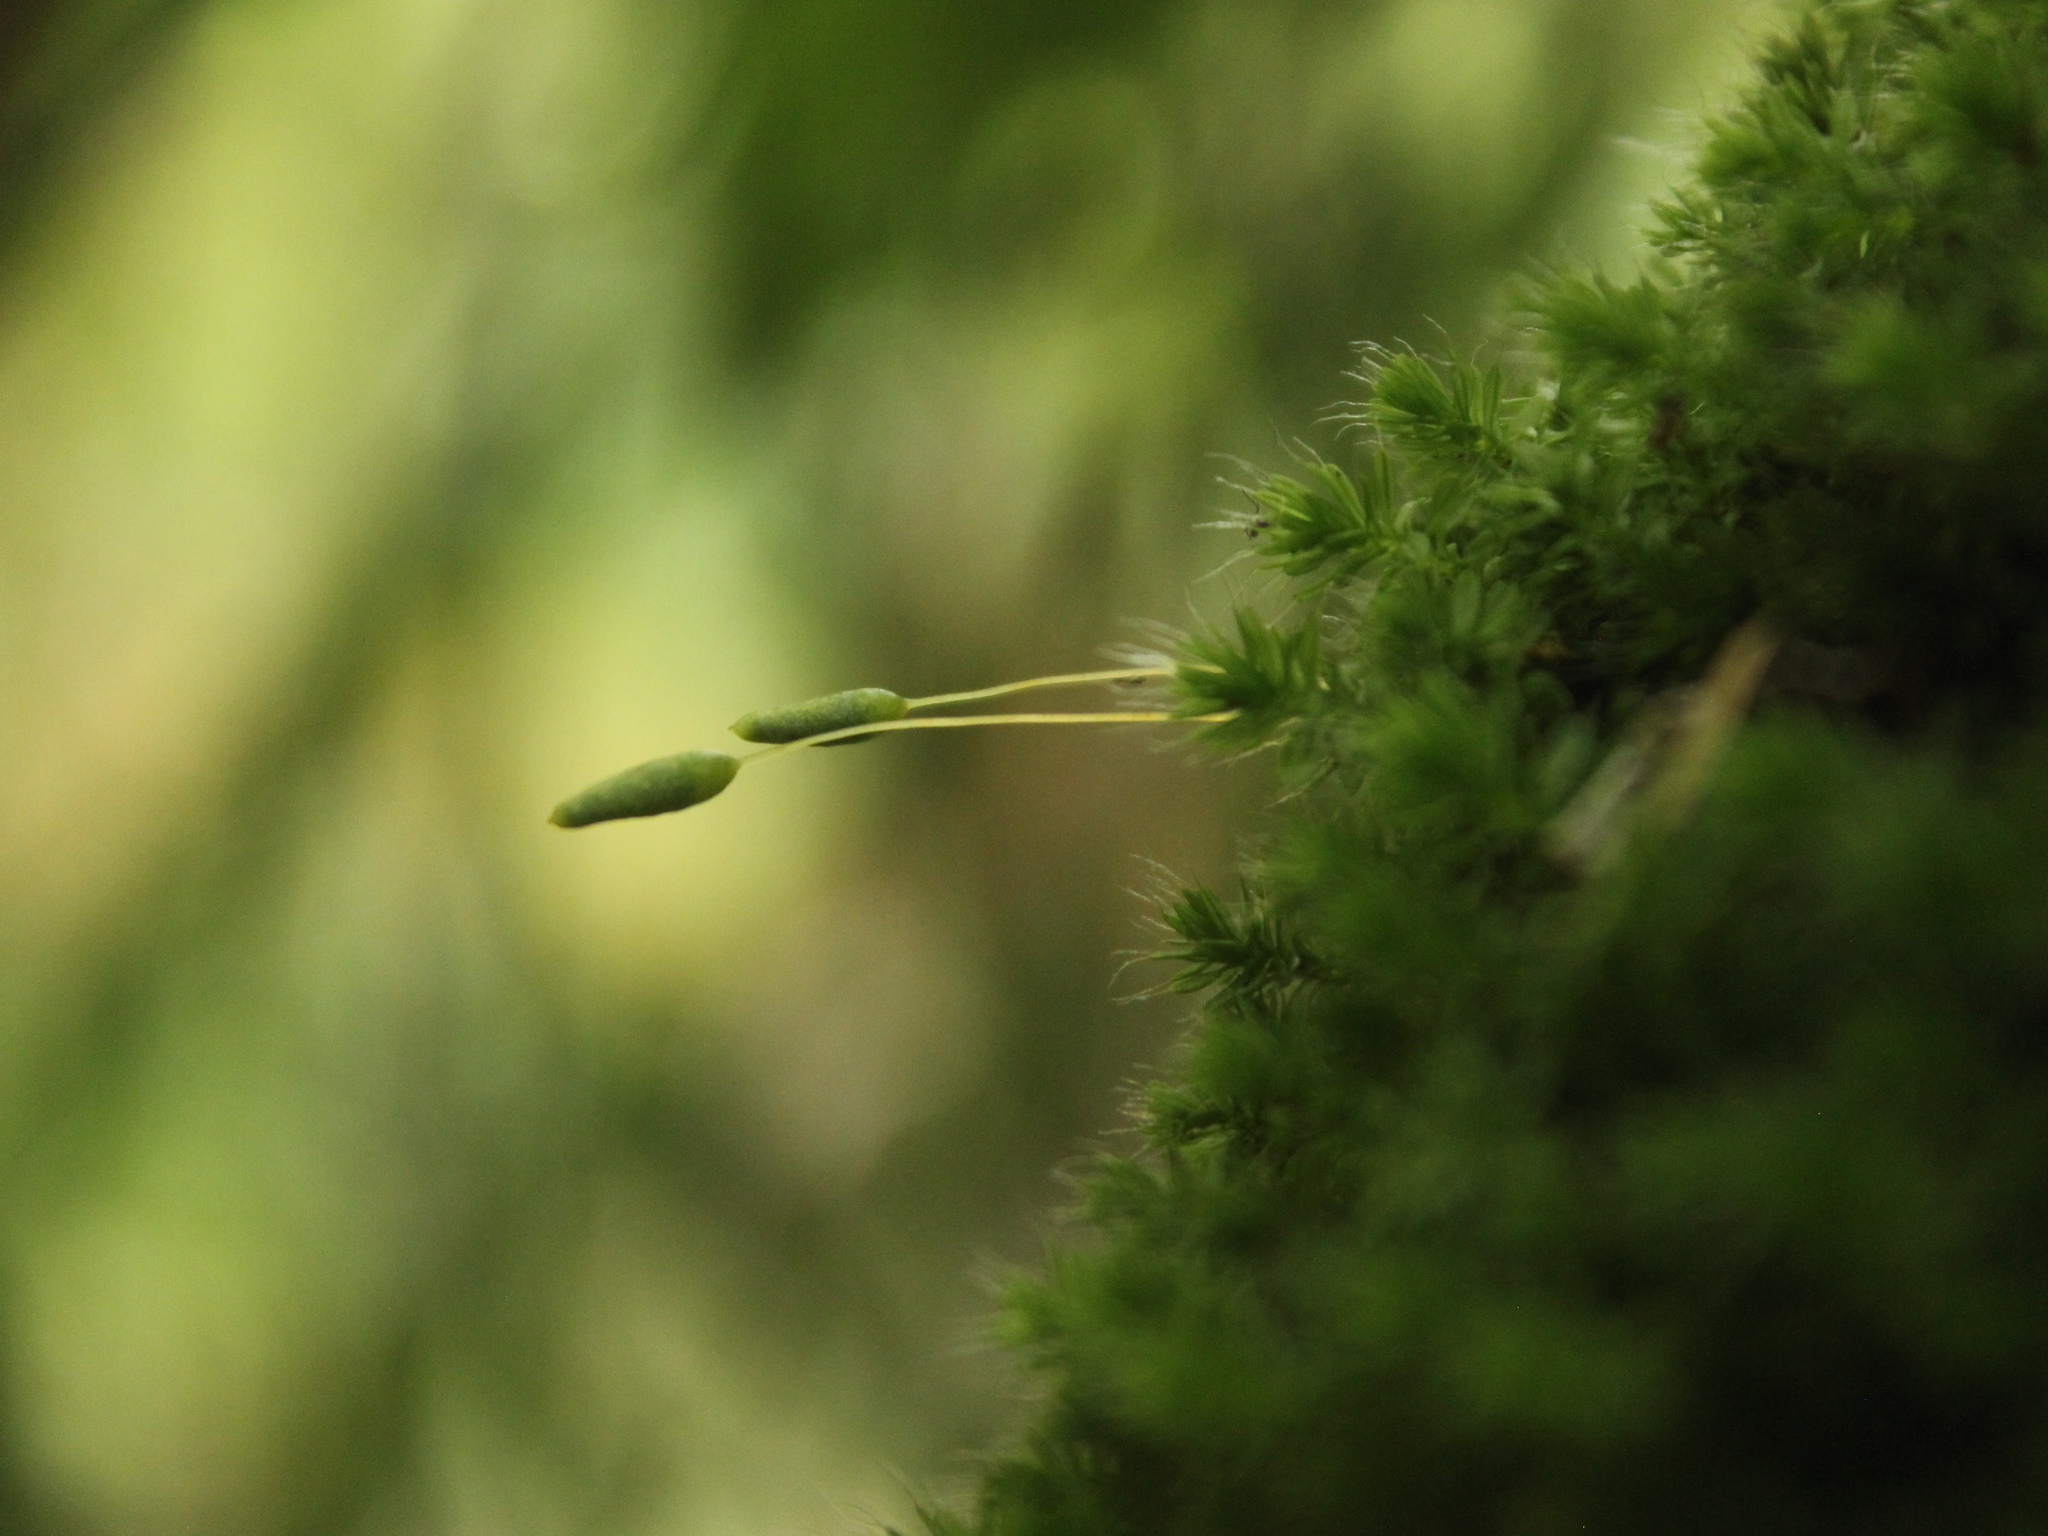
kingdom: Plantae
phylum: Bryophyta
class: Bryopsida
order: Bryales
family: Leptostomataceae
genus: Leptostomum
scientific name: Leptostomum macrocarpon
